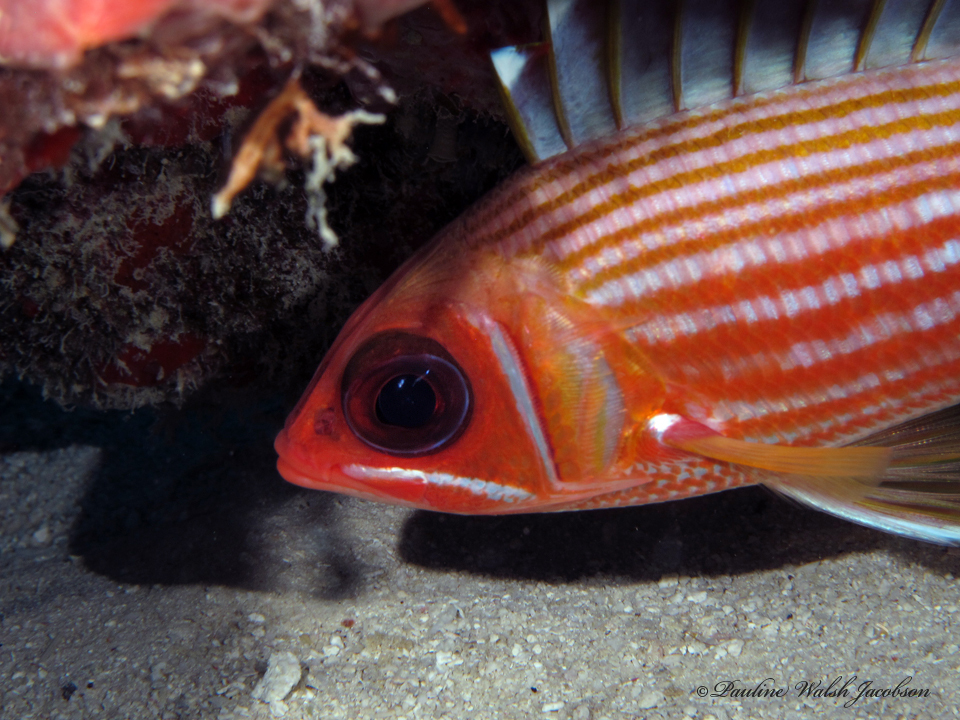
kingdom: Animalia
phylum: Chordata
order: Beryciformes
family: Holocentridae
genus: Holocentrus
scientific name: Holocentrus rufus
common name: Longspine squirrelfish
